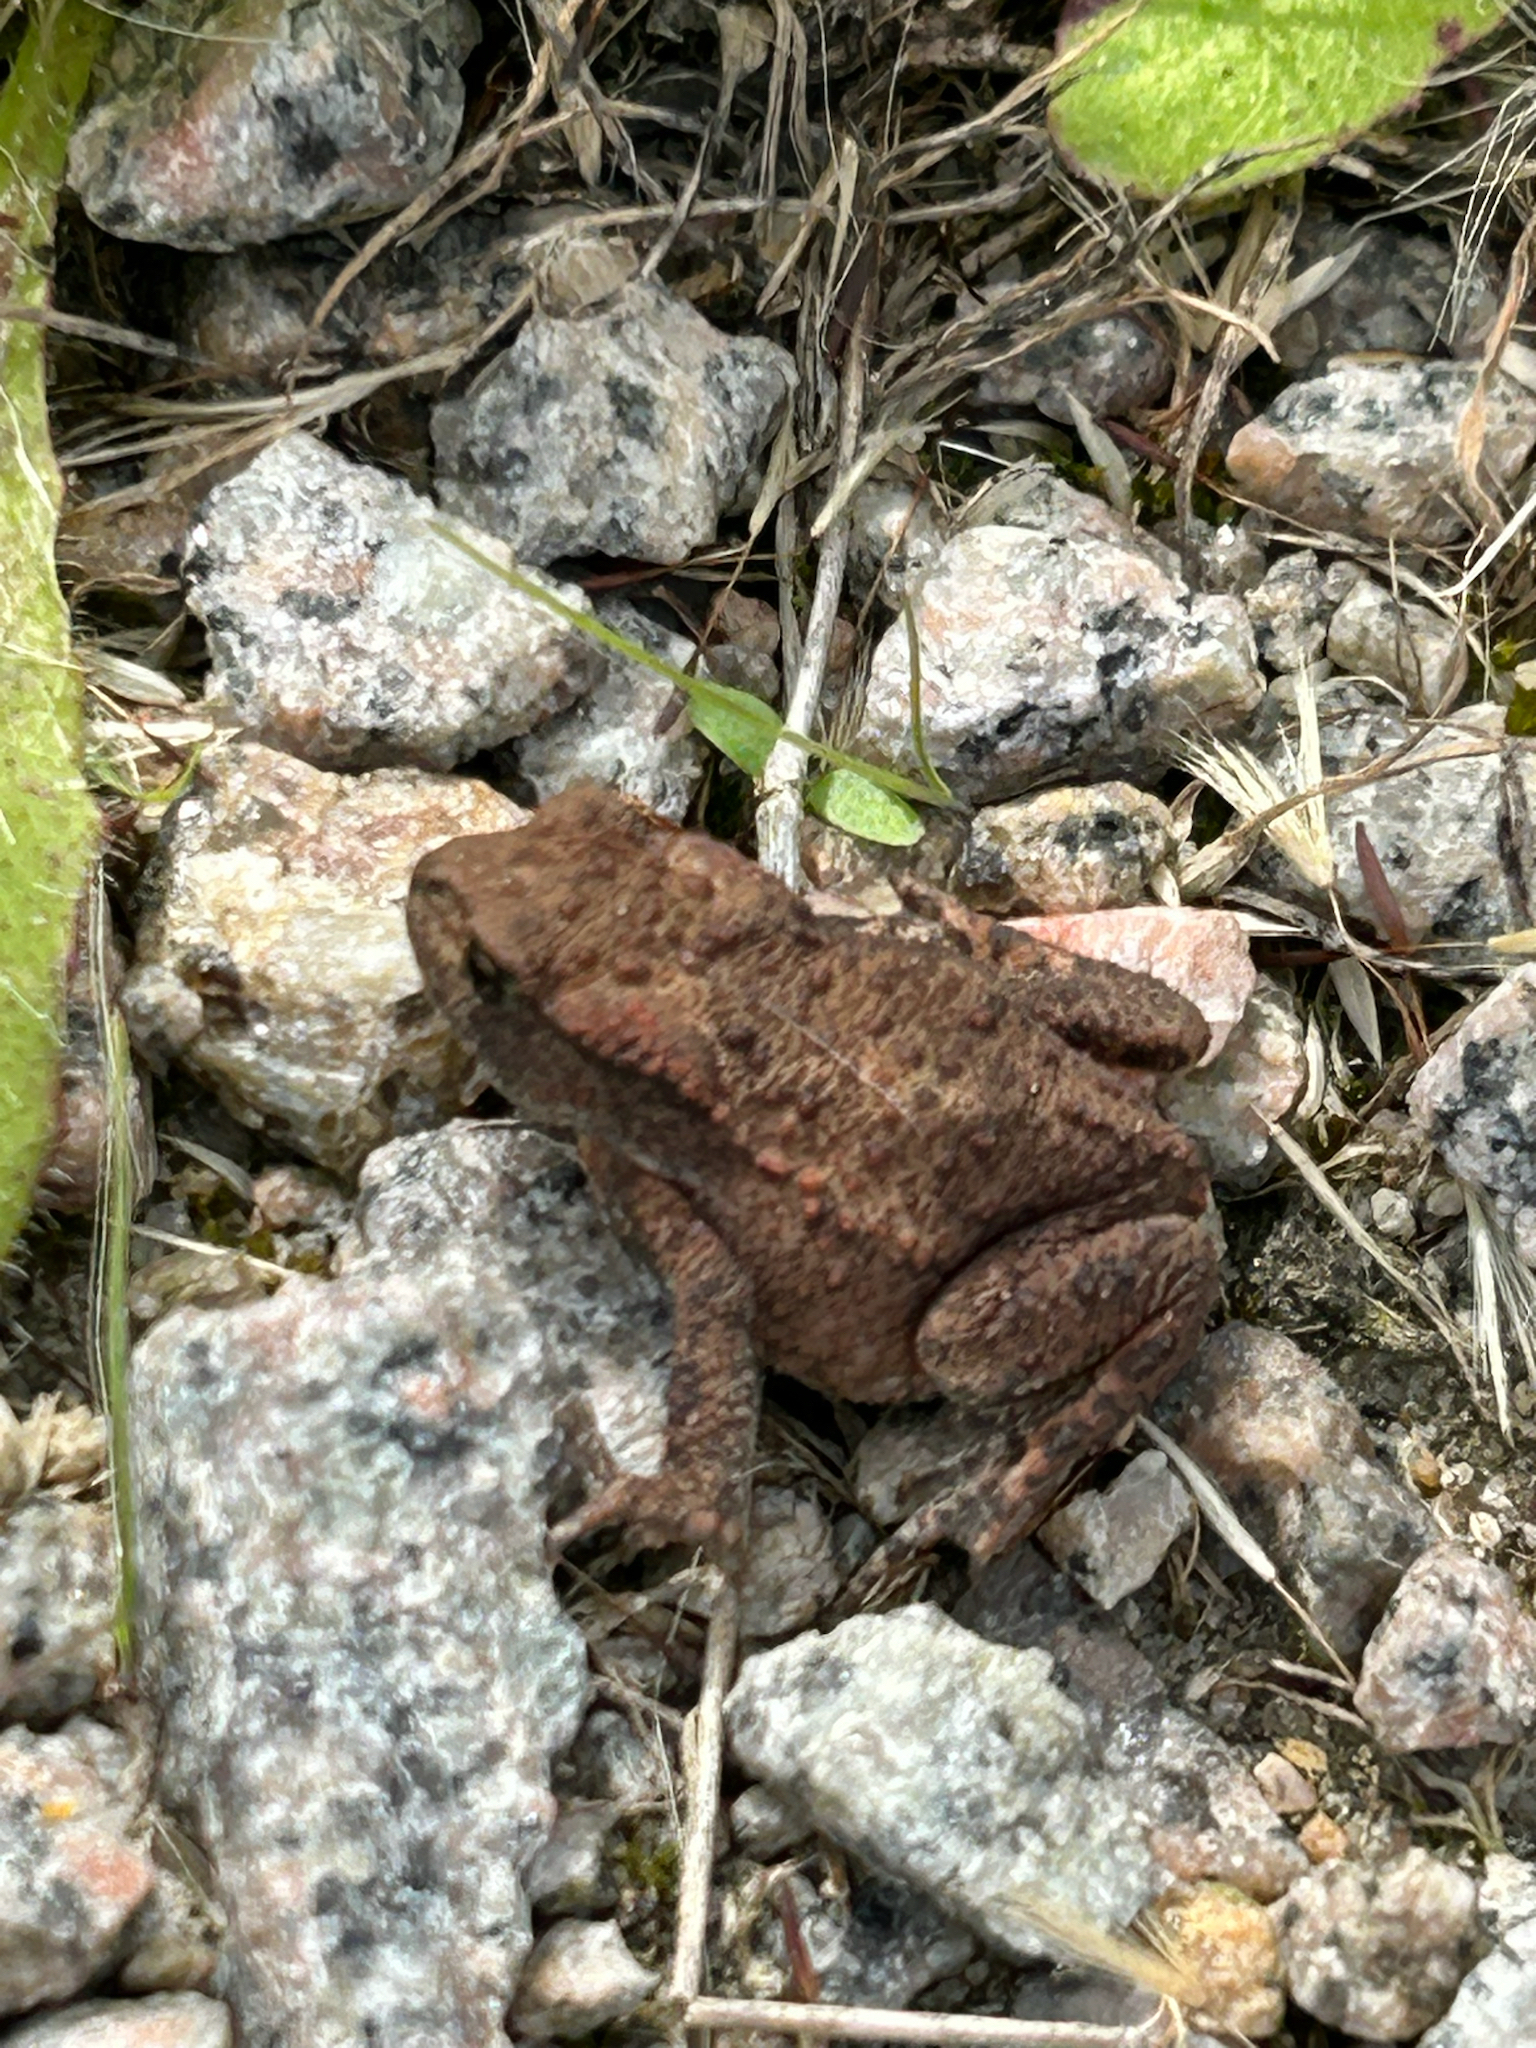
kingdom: Animalia
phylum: Chordata
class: Amphibia
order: Anura
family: Bufonidae
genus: Bufo
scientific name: Bufo bufo
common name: Common toad
